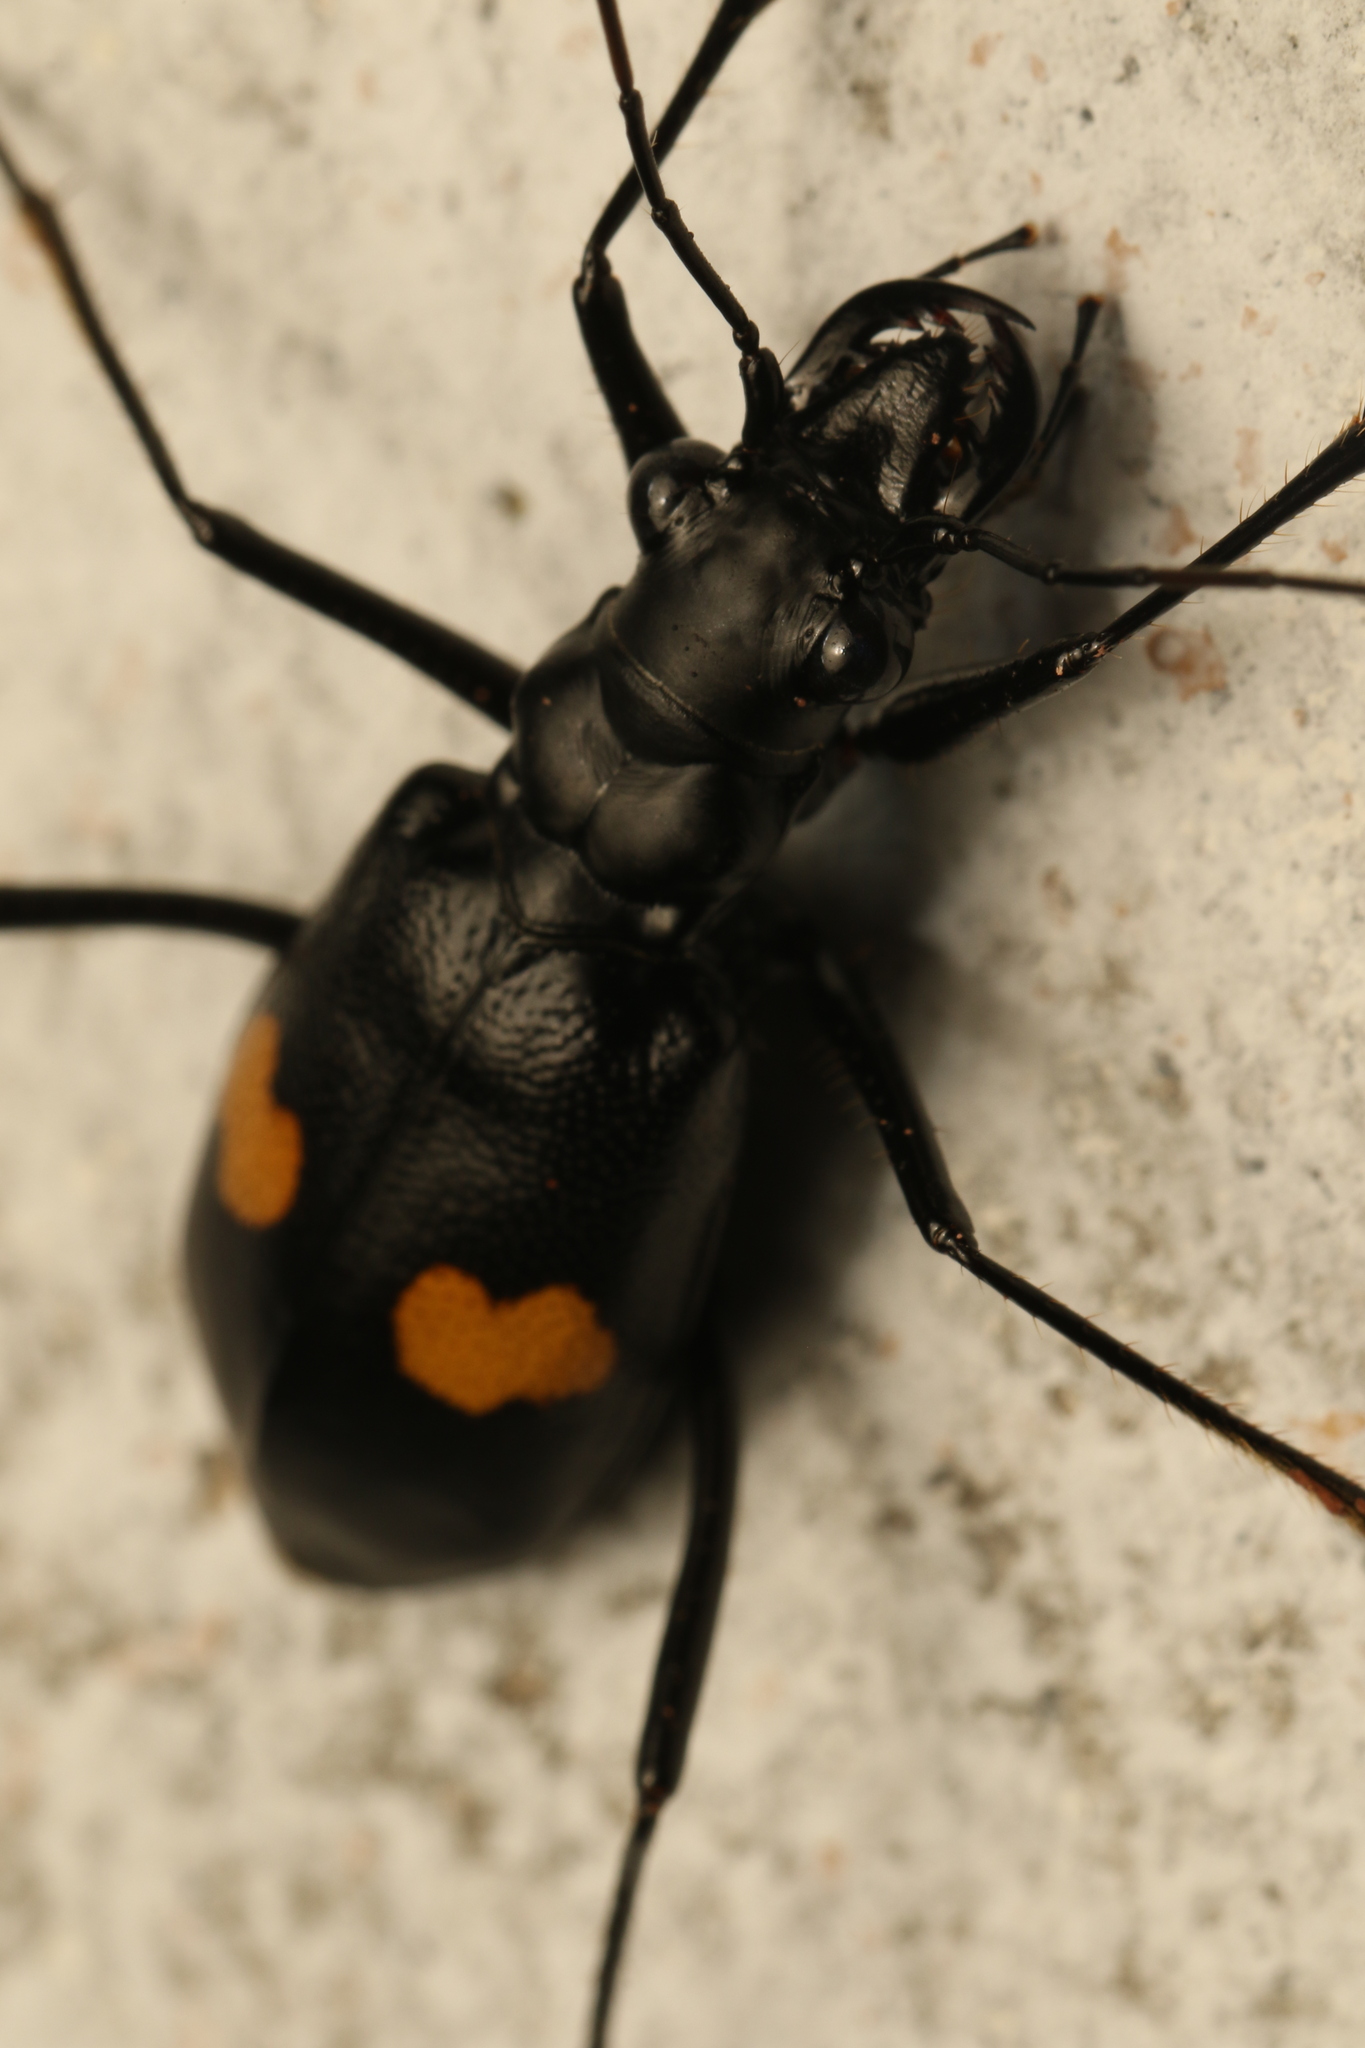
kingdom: Animalia
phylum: Arthropoda
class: Insecta
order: Coleoptera
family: Carabidae
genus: Oxycheila
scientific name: Oxycheila tristis
